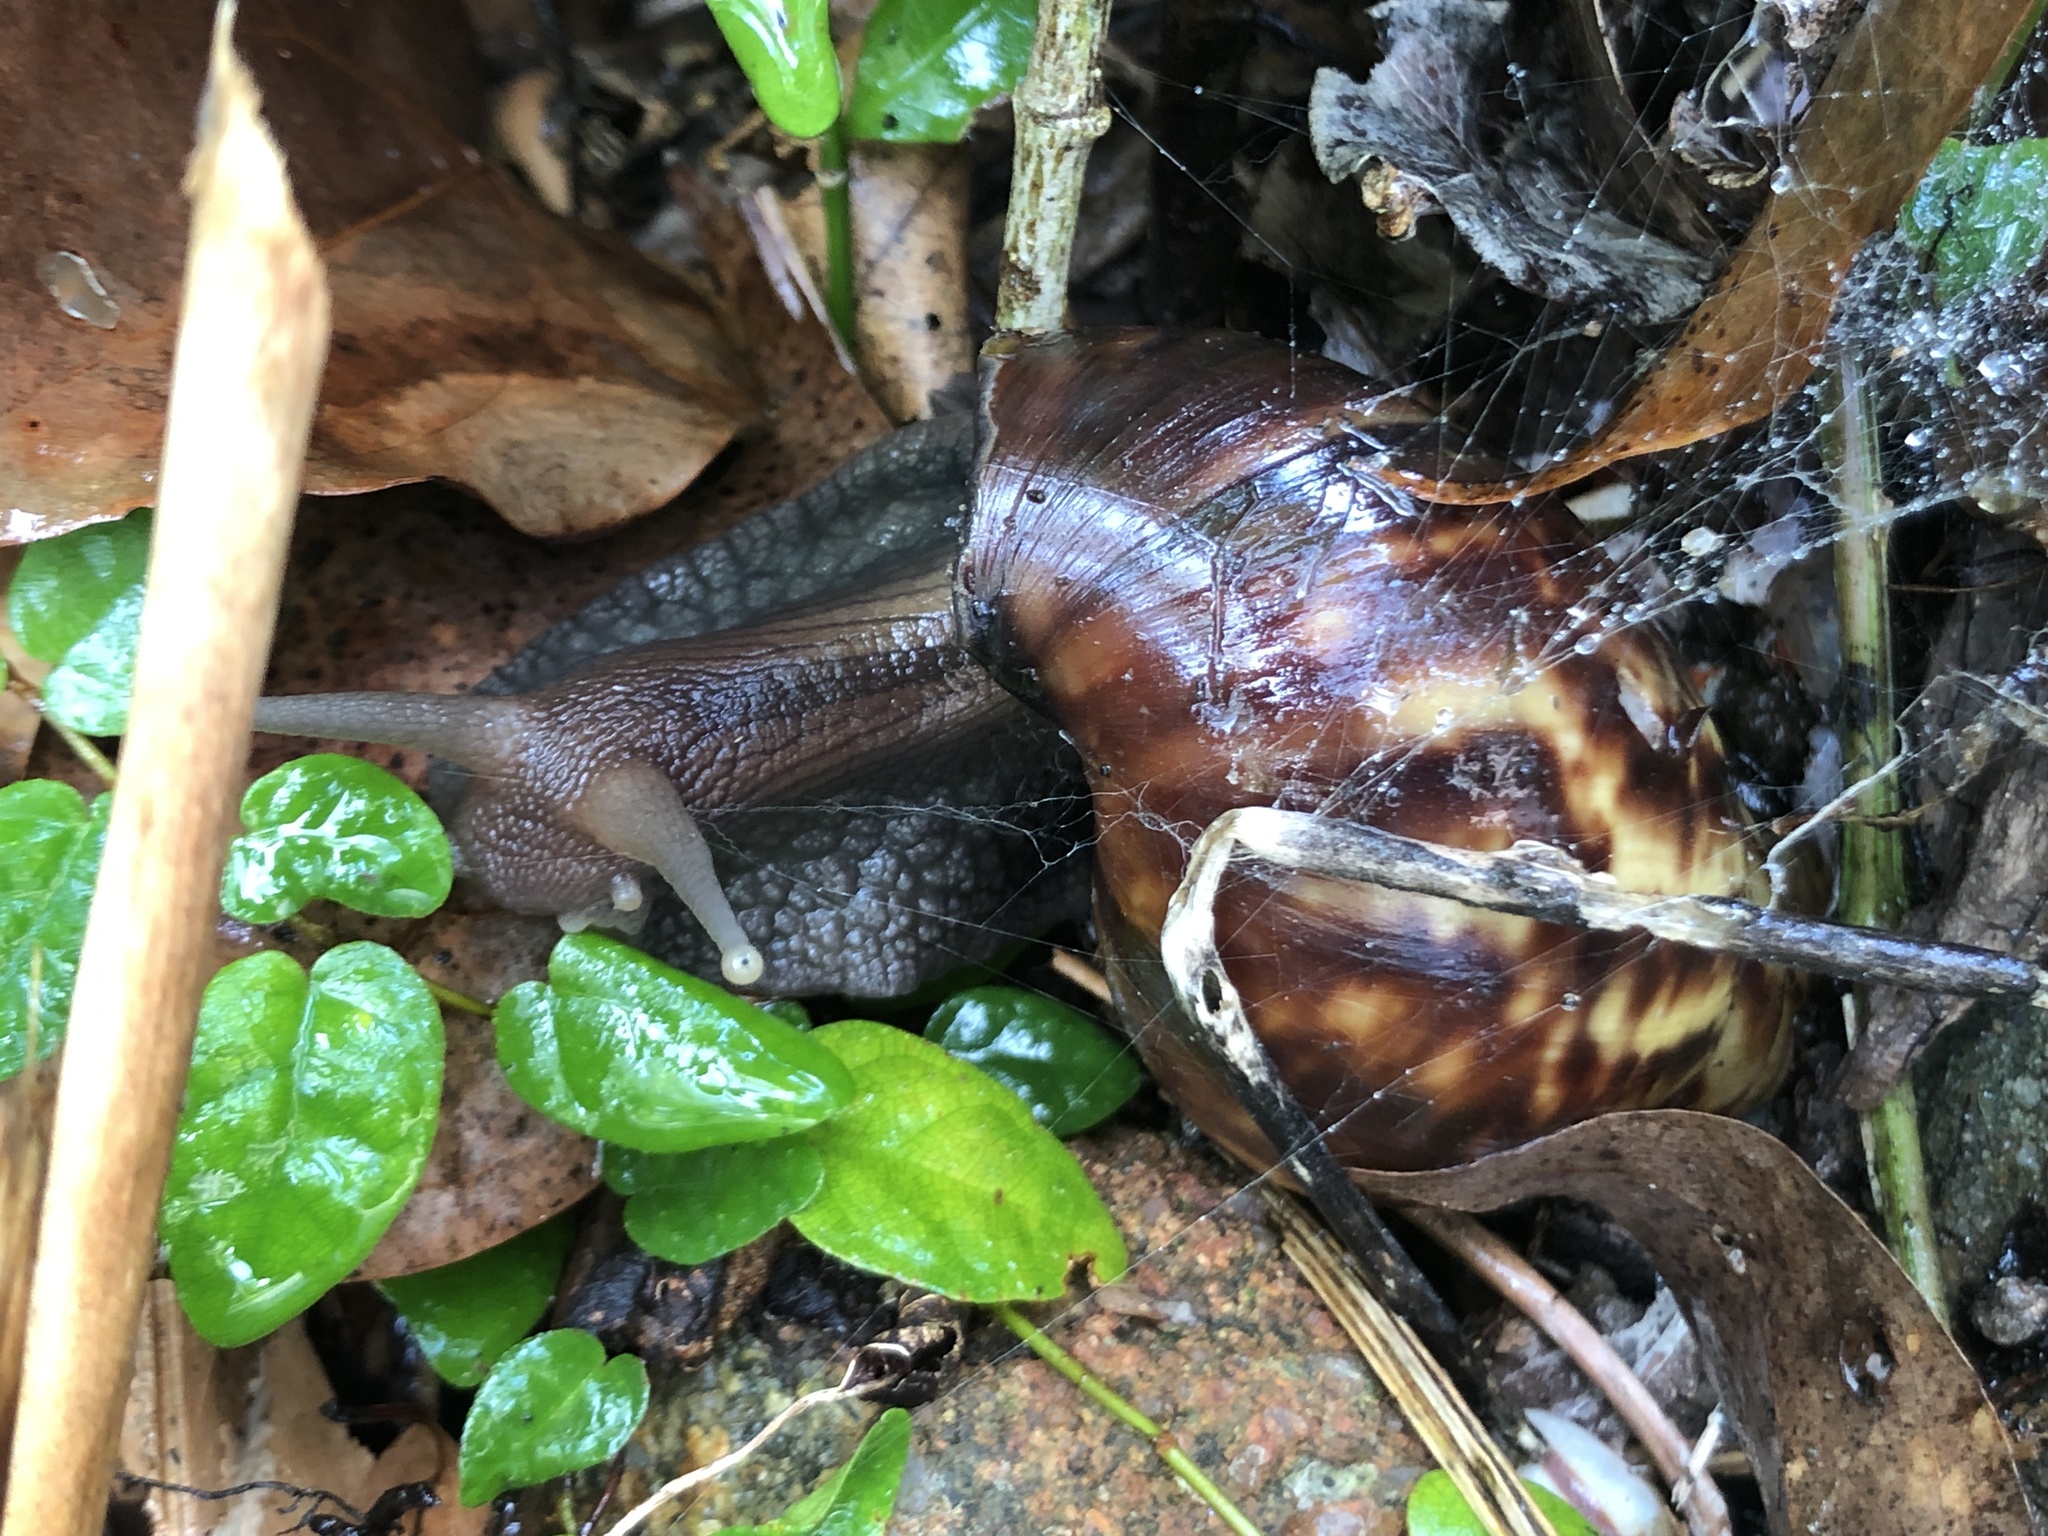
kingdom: Animalia
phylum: Mollusca
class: Gastropoda
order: Stylommatophora
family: Achatinidae
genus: Lissachatina
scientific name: Lissachatina fulica
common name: Giant african snail
